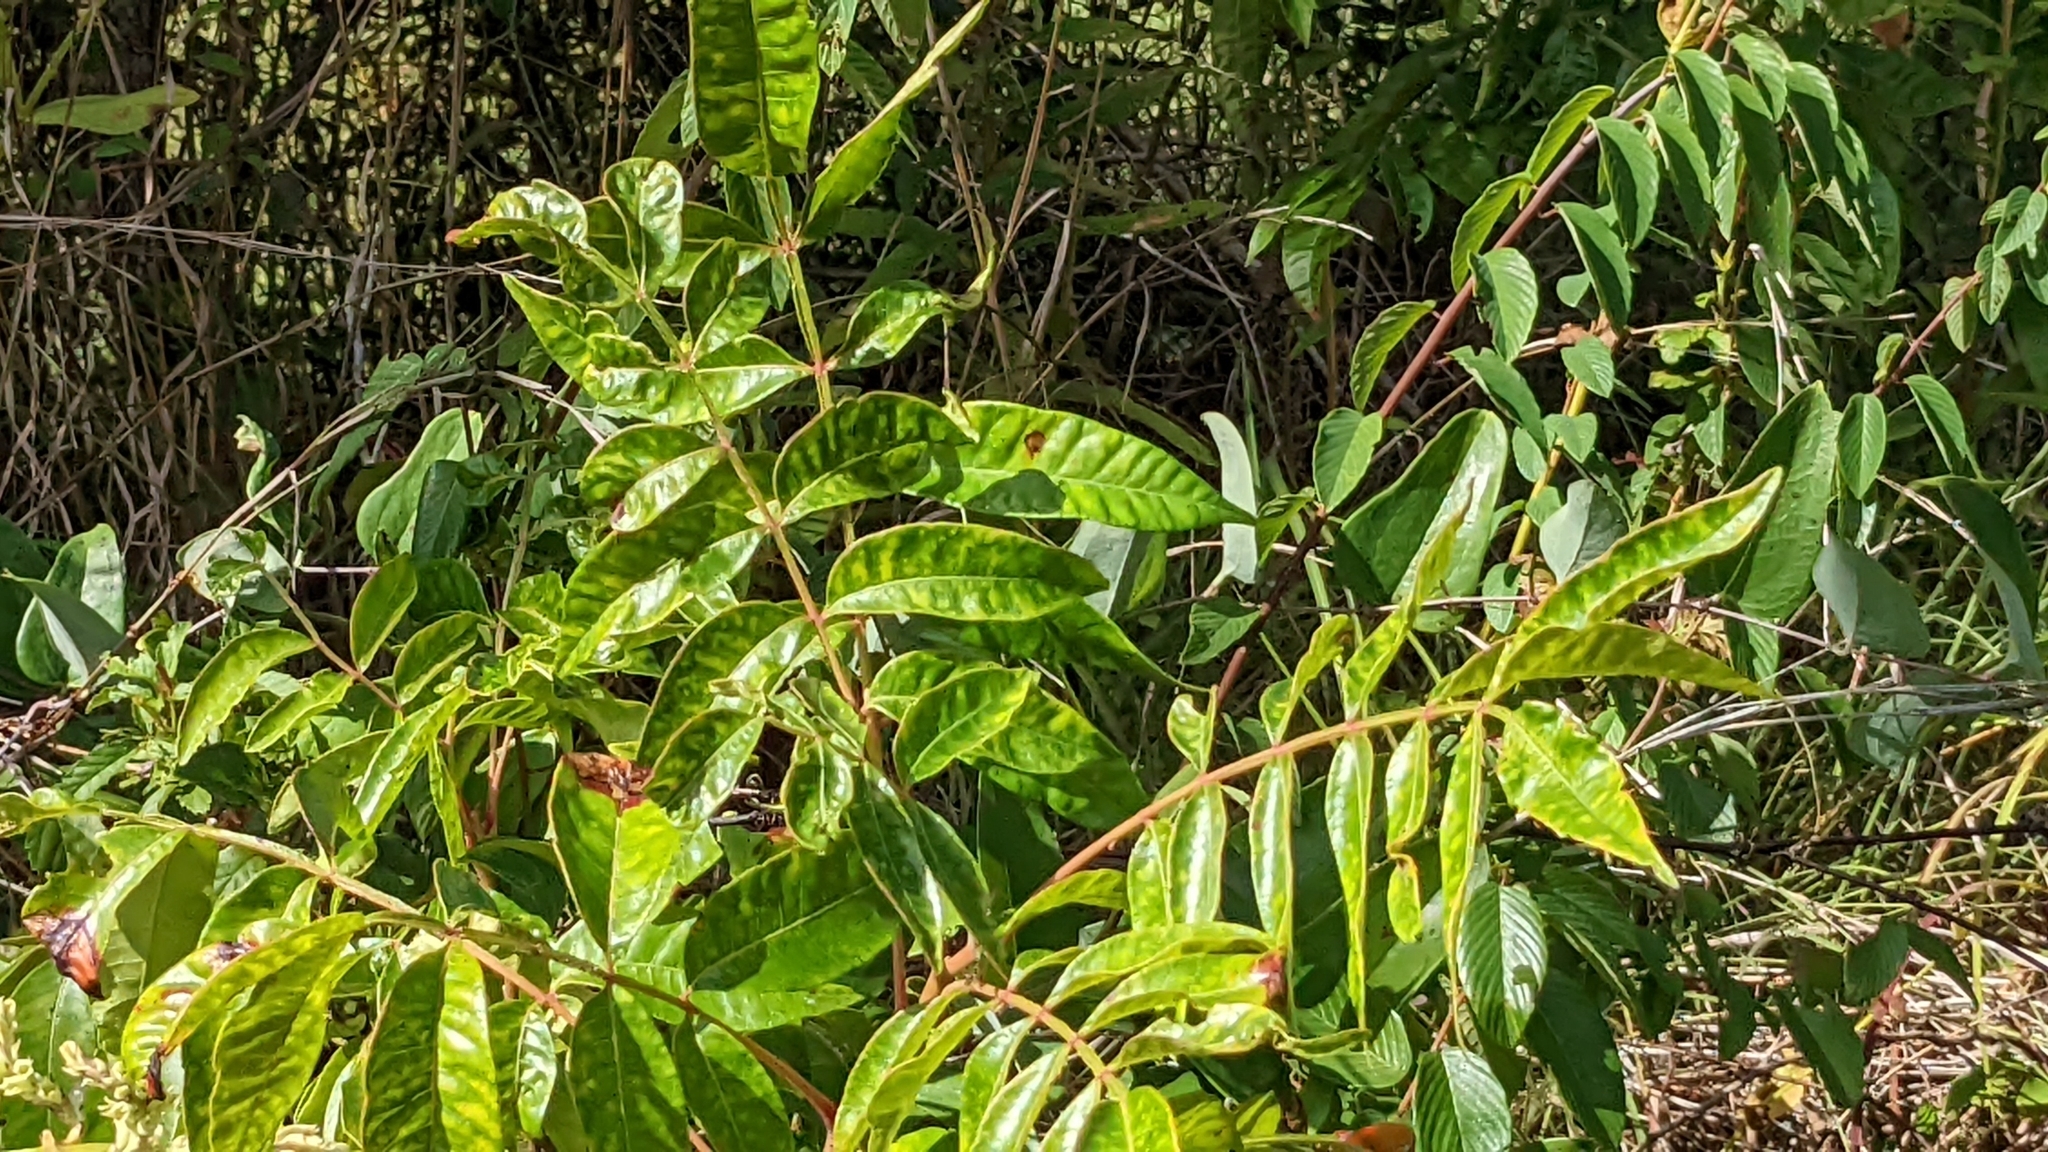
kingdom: Plantae
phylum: Tracheophyta
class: Magnoliopsida
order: Sapindales
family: Anacardiaceae
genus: Rhus
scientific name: Rhus copallina
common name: Shining sumac
